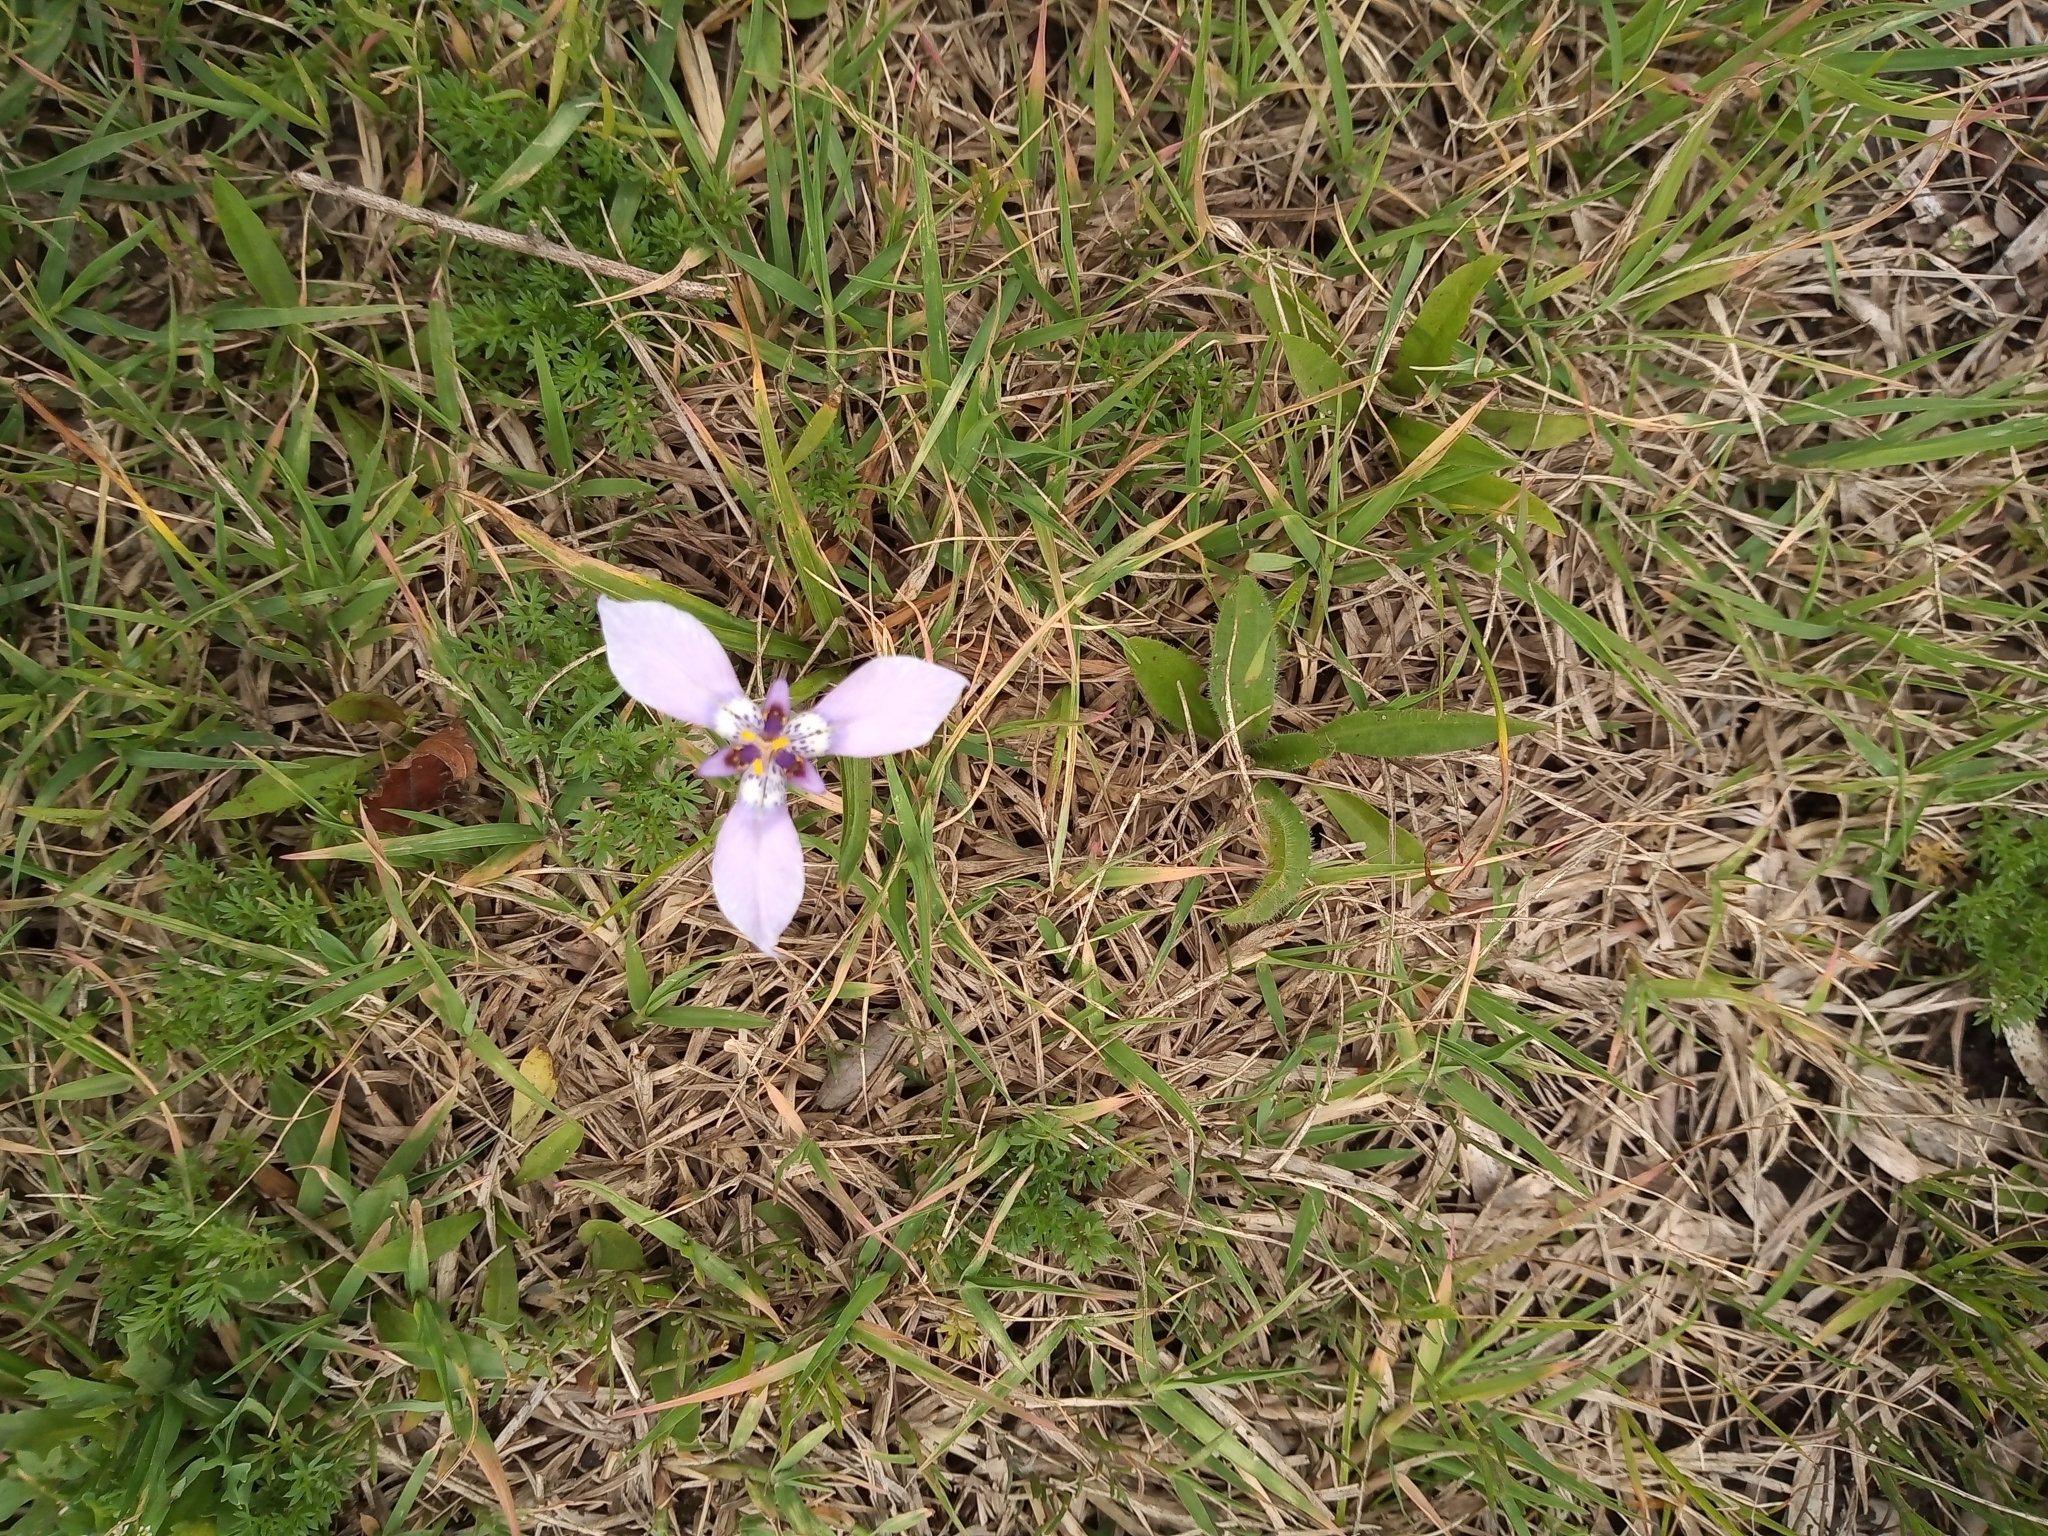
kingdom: Plantae
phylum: Tracheophyta
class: Liliopsida
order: Asparagales
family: Iridaceae
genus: Herbertia
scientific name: Herbertia lahue
